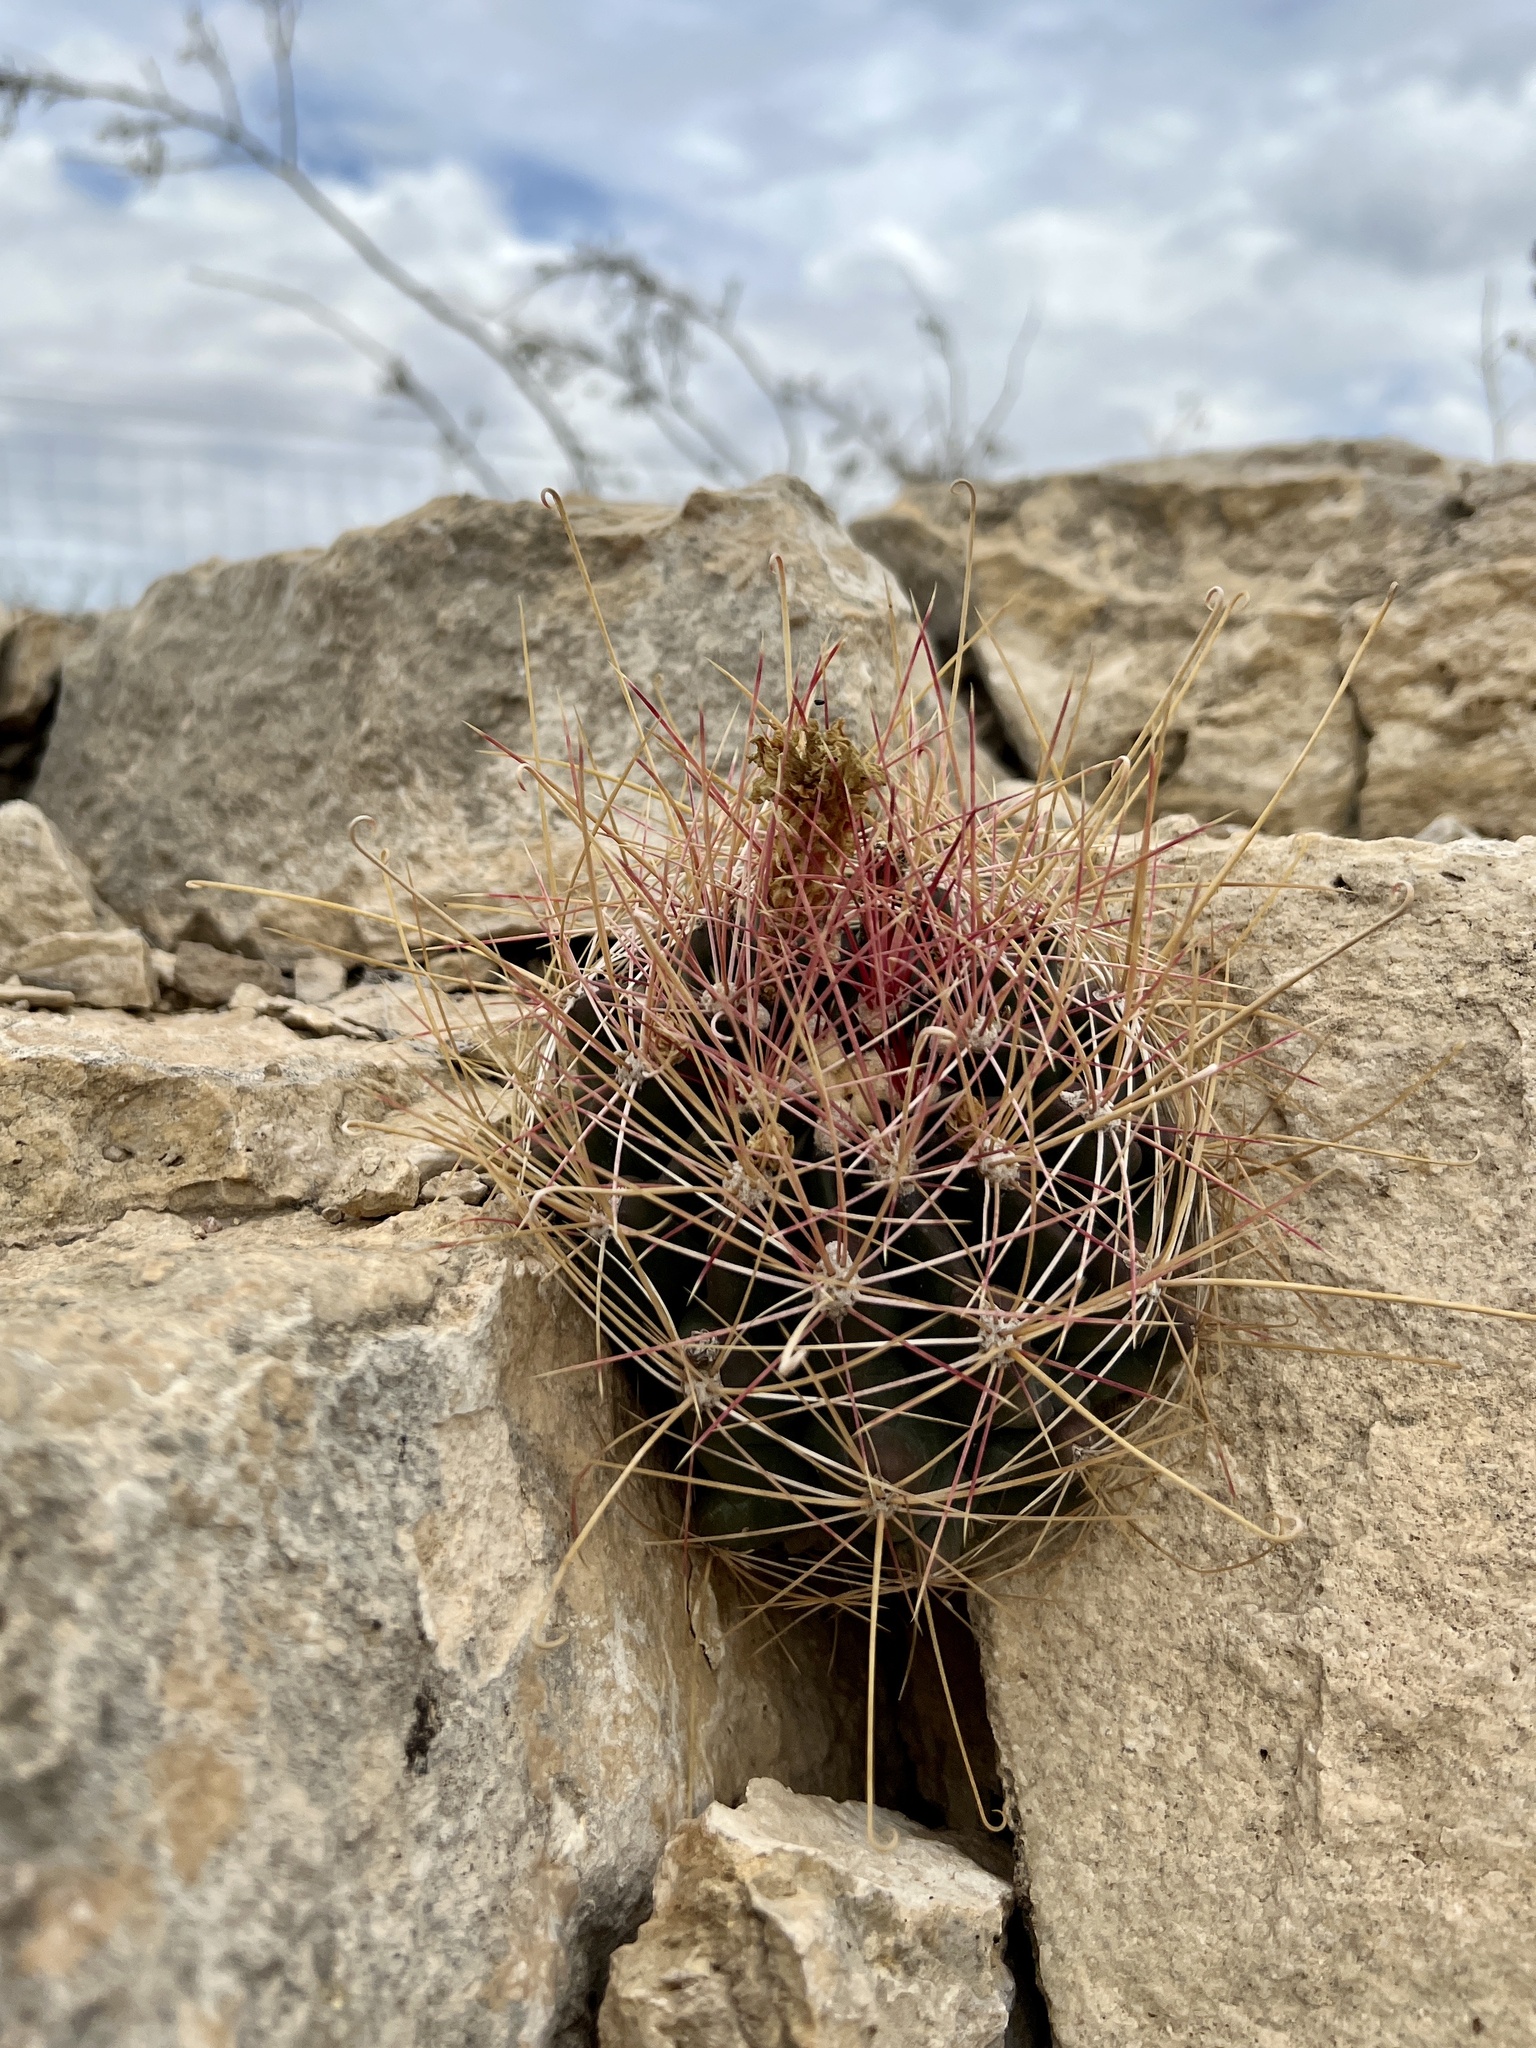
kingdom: Plantae
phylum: Tracheophyta
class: Magnoliopsida
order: Caryophyllales
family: Cactaceae
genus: Bisnaga
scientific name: Bisnaga hamatacantha
